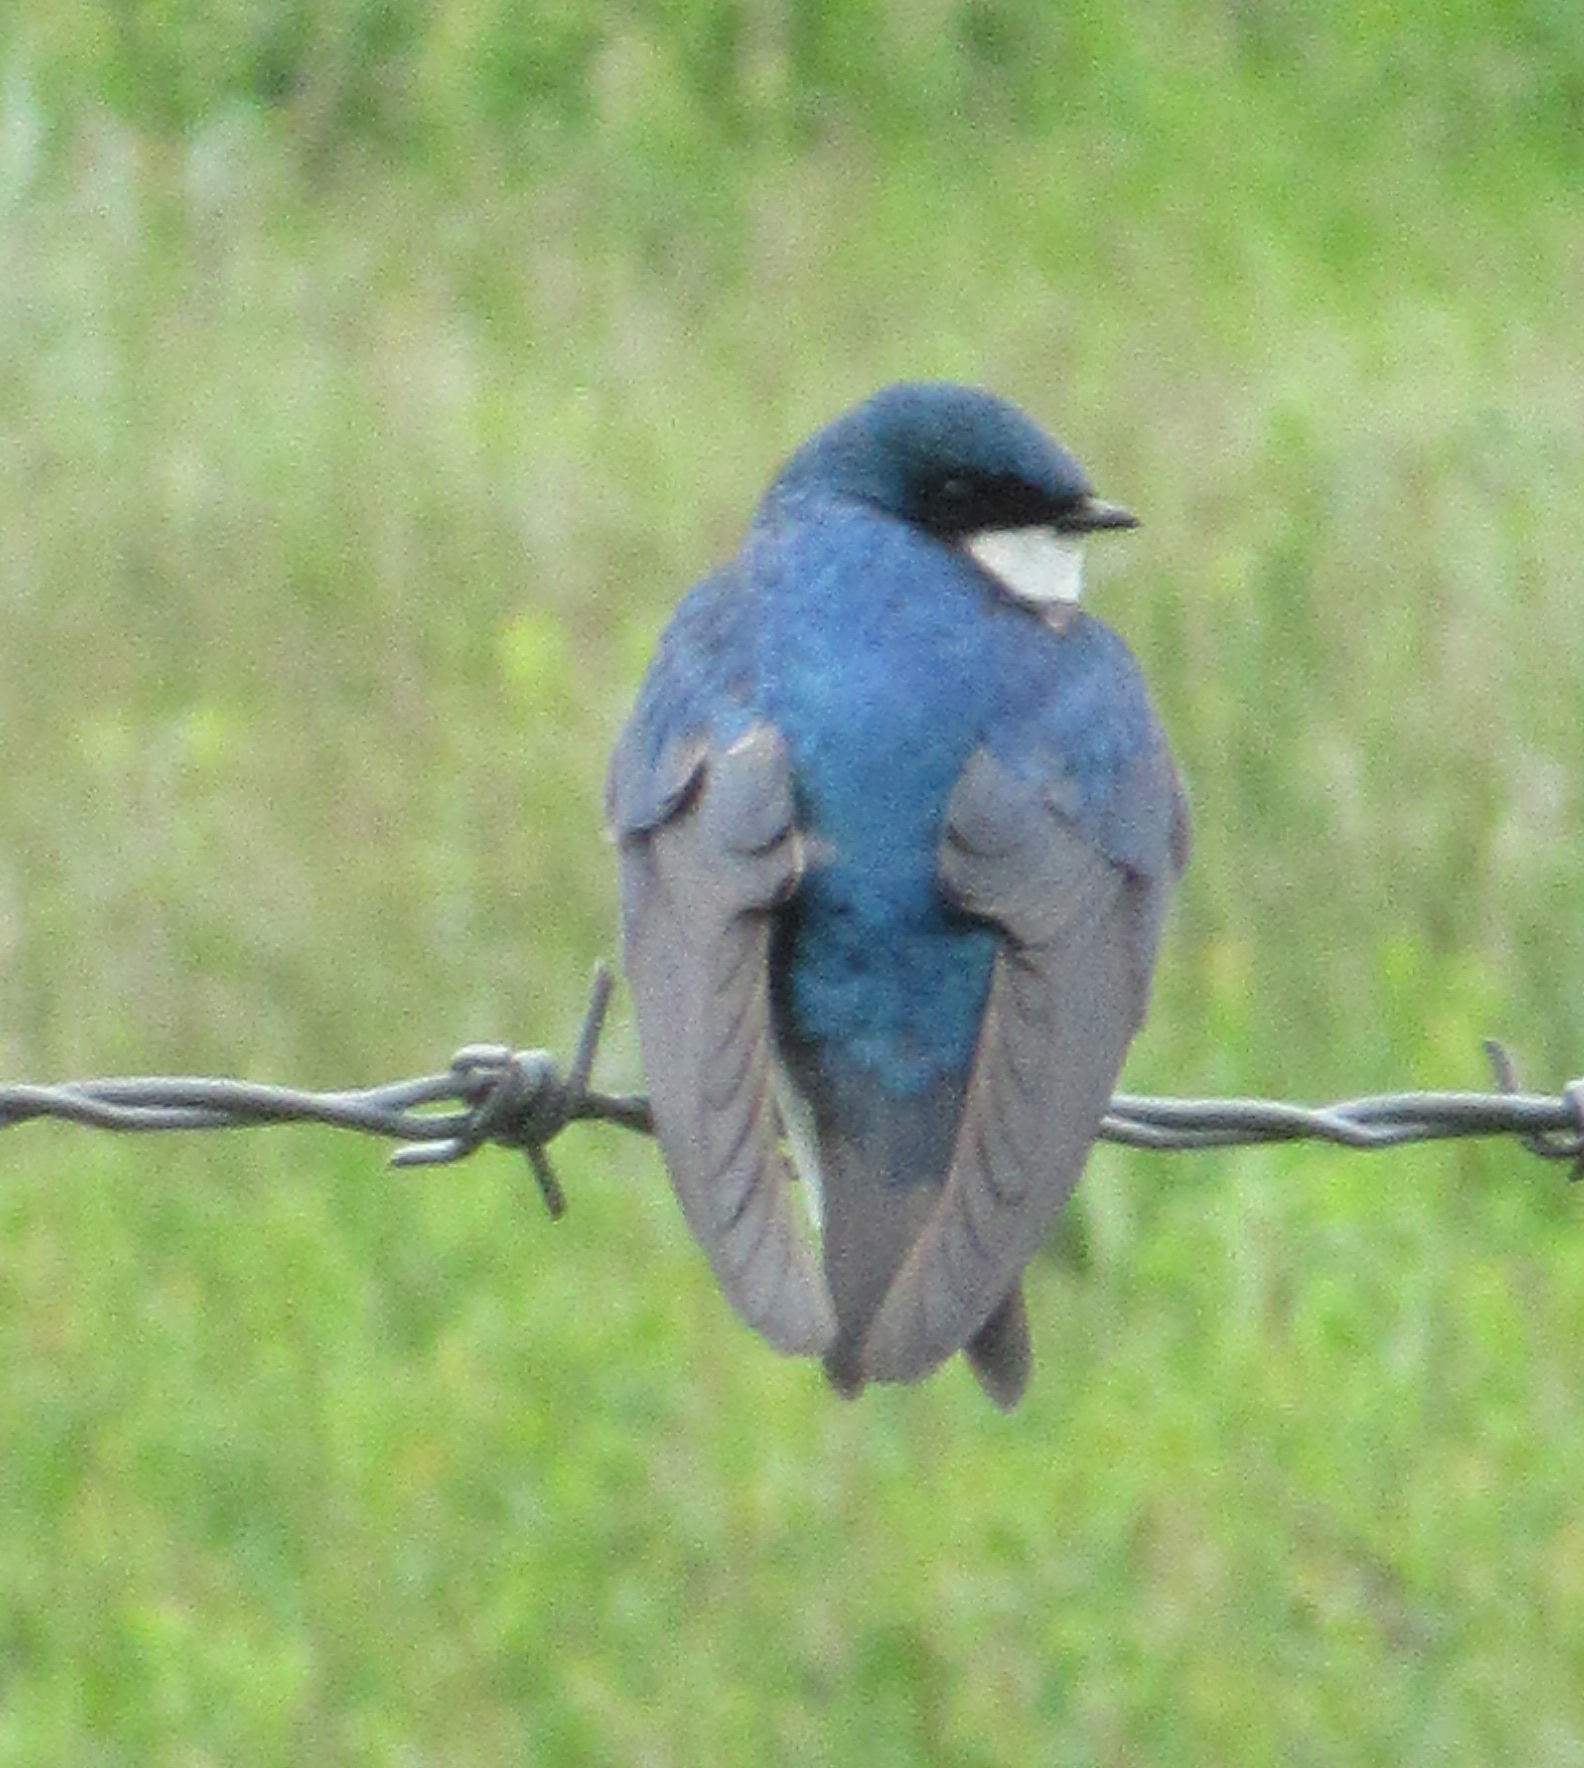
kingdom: Animalia
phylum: Chordata
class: Aves
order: Passeriformes
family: Hirundinidae
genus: Tachycineta
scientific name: Tachycineta bicolor
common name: Tree swallow
